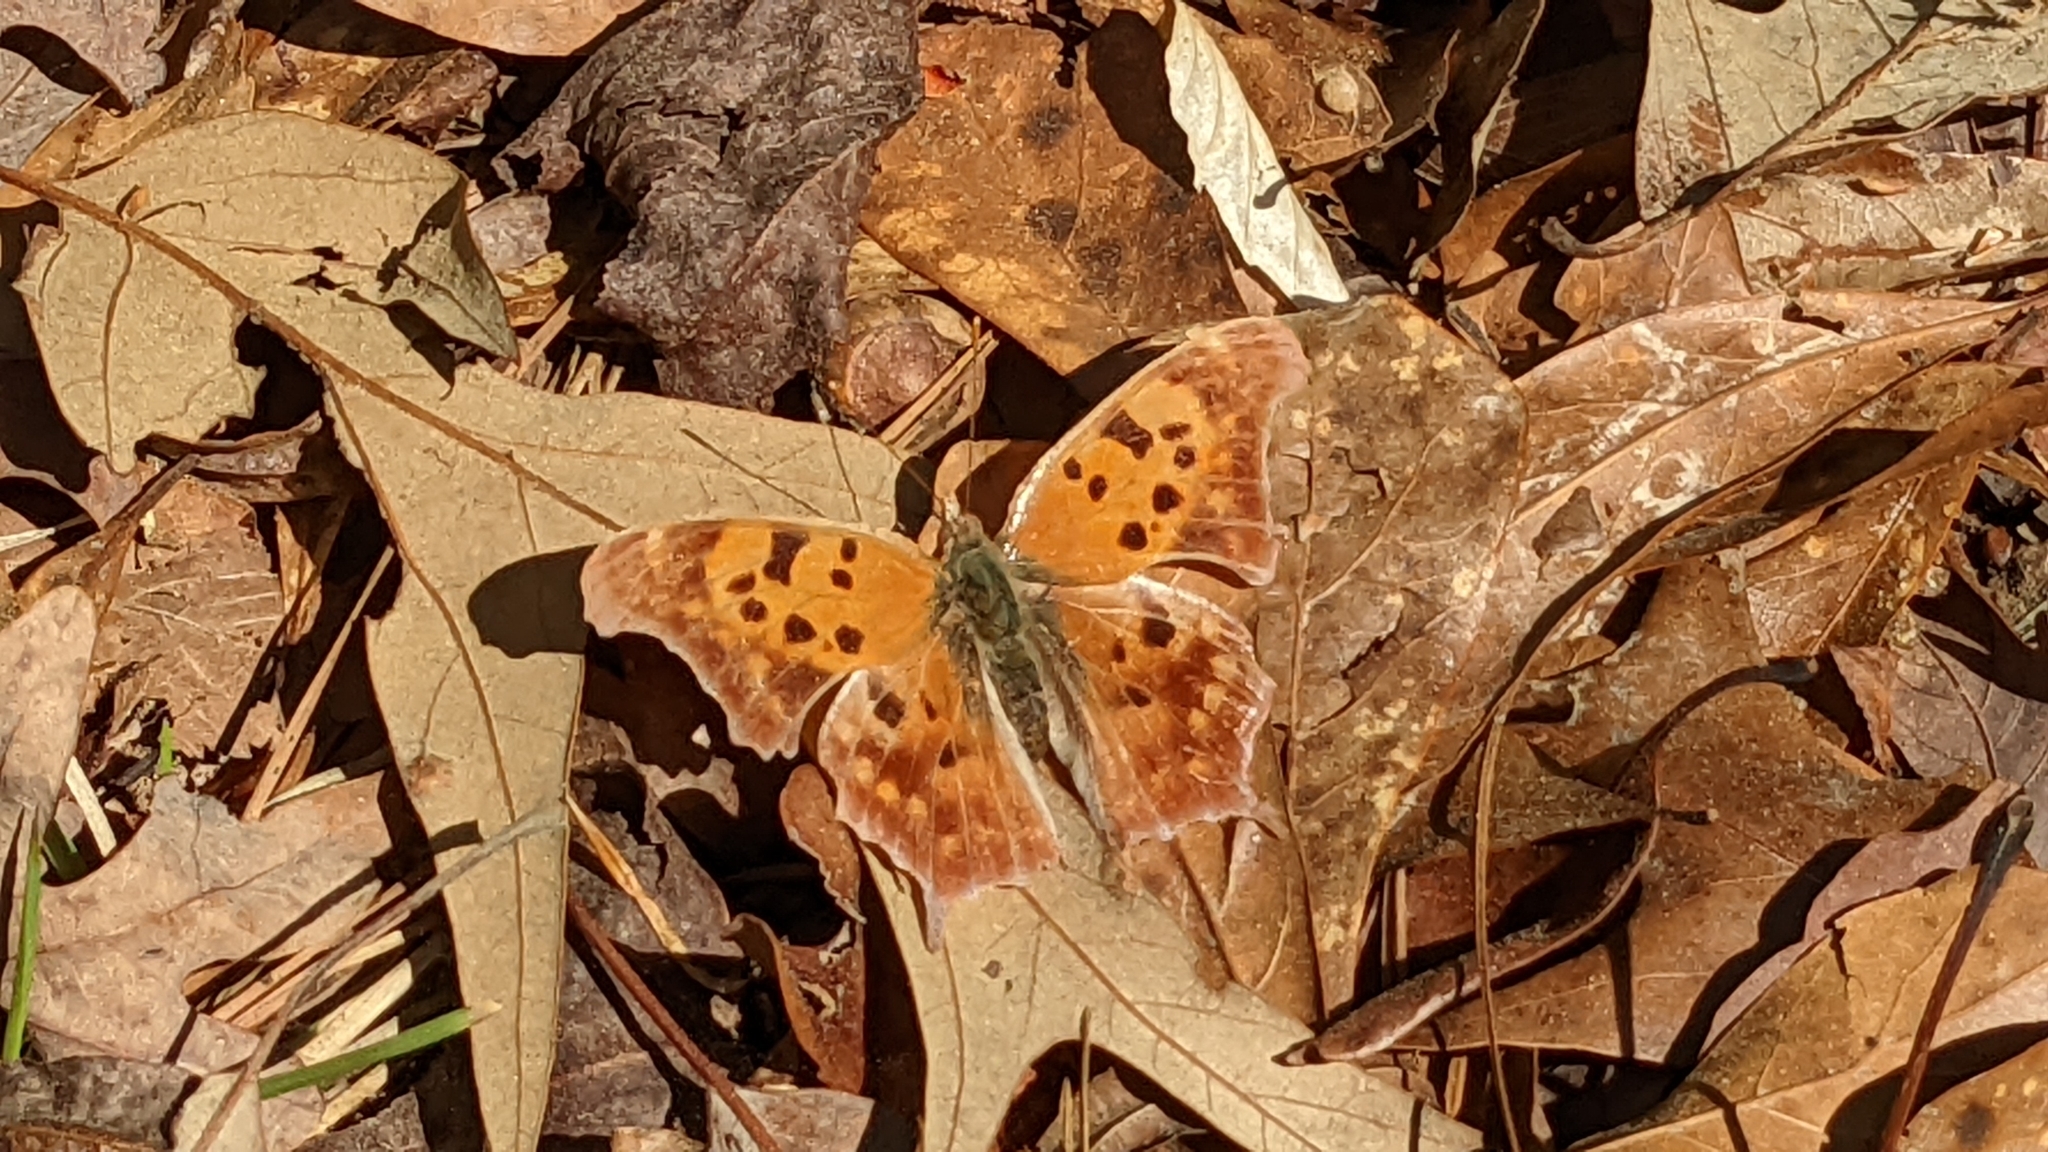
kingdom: Animalia
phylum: Arthropoda
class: Insecta
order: Lepidoptera
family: Nymphalidae
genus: Polygonia
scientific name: Polygonia interrogationis
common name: Question mark
